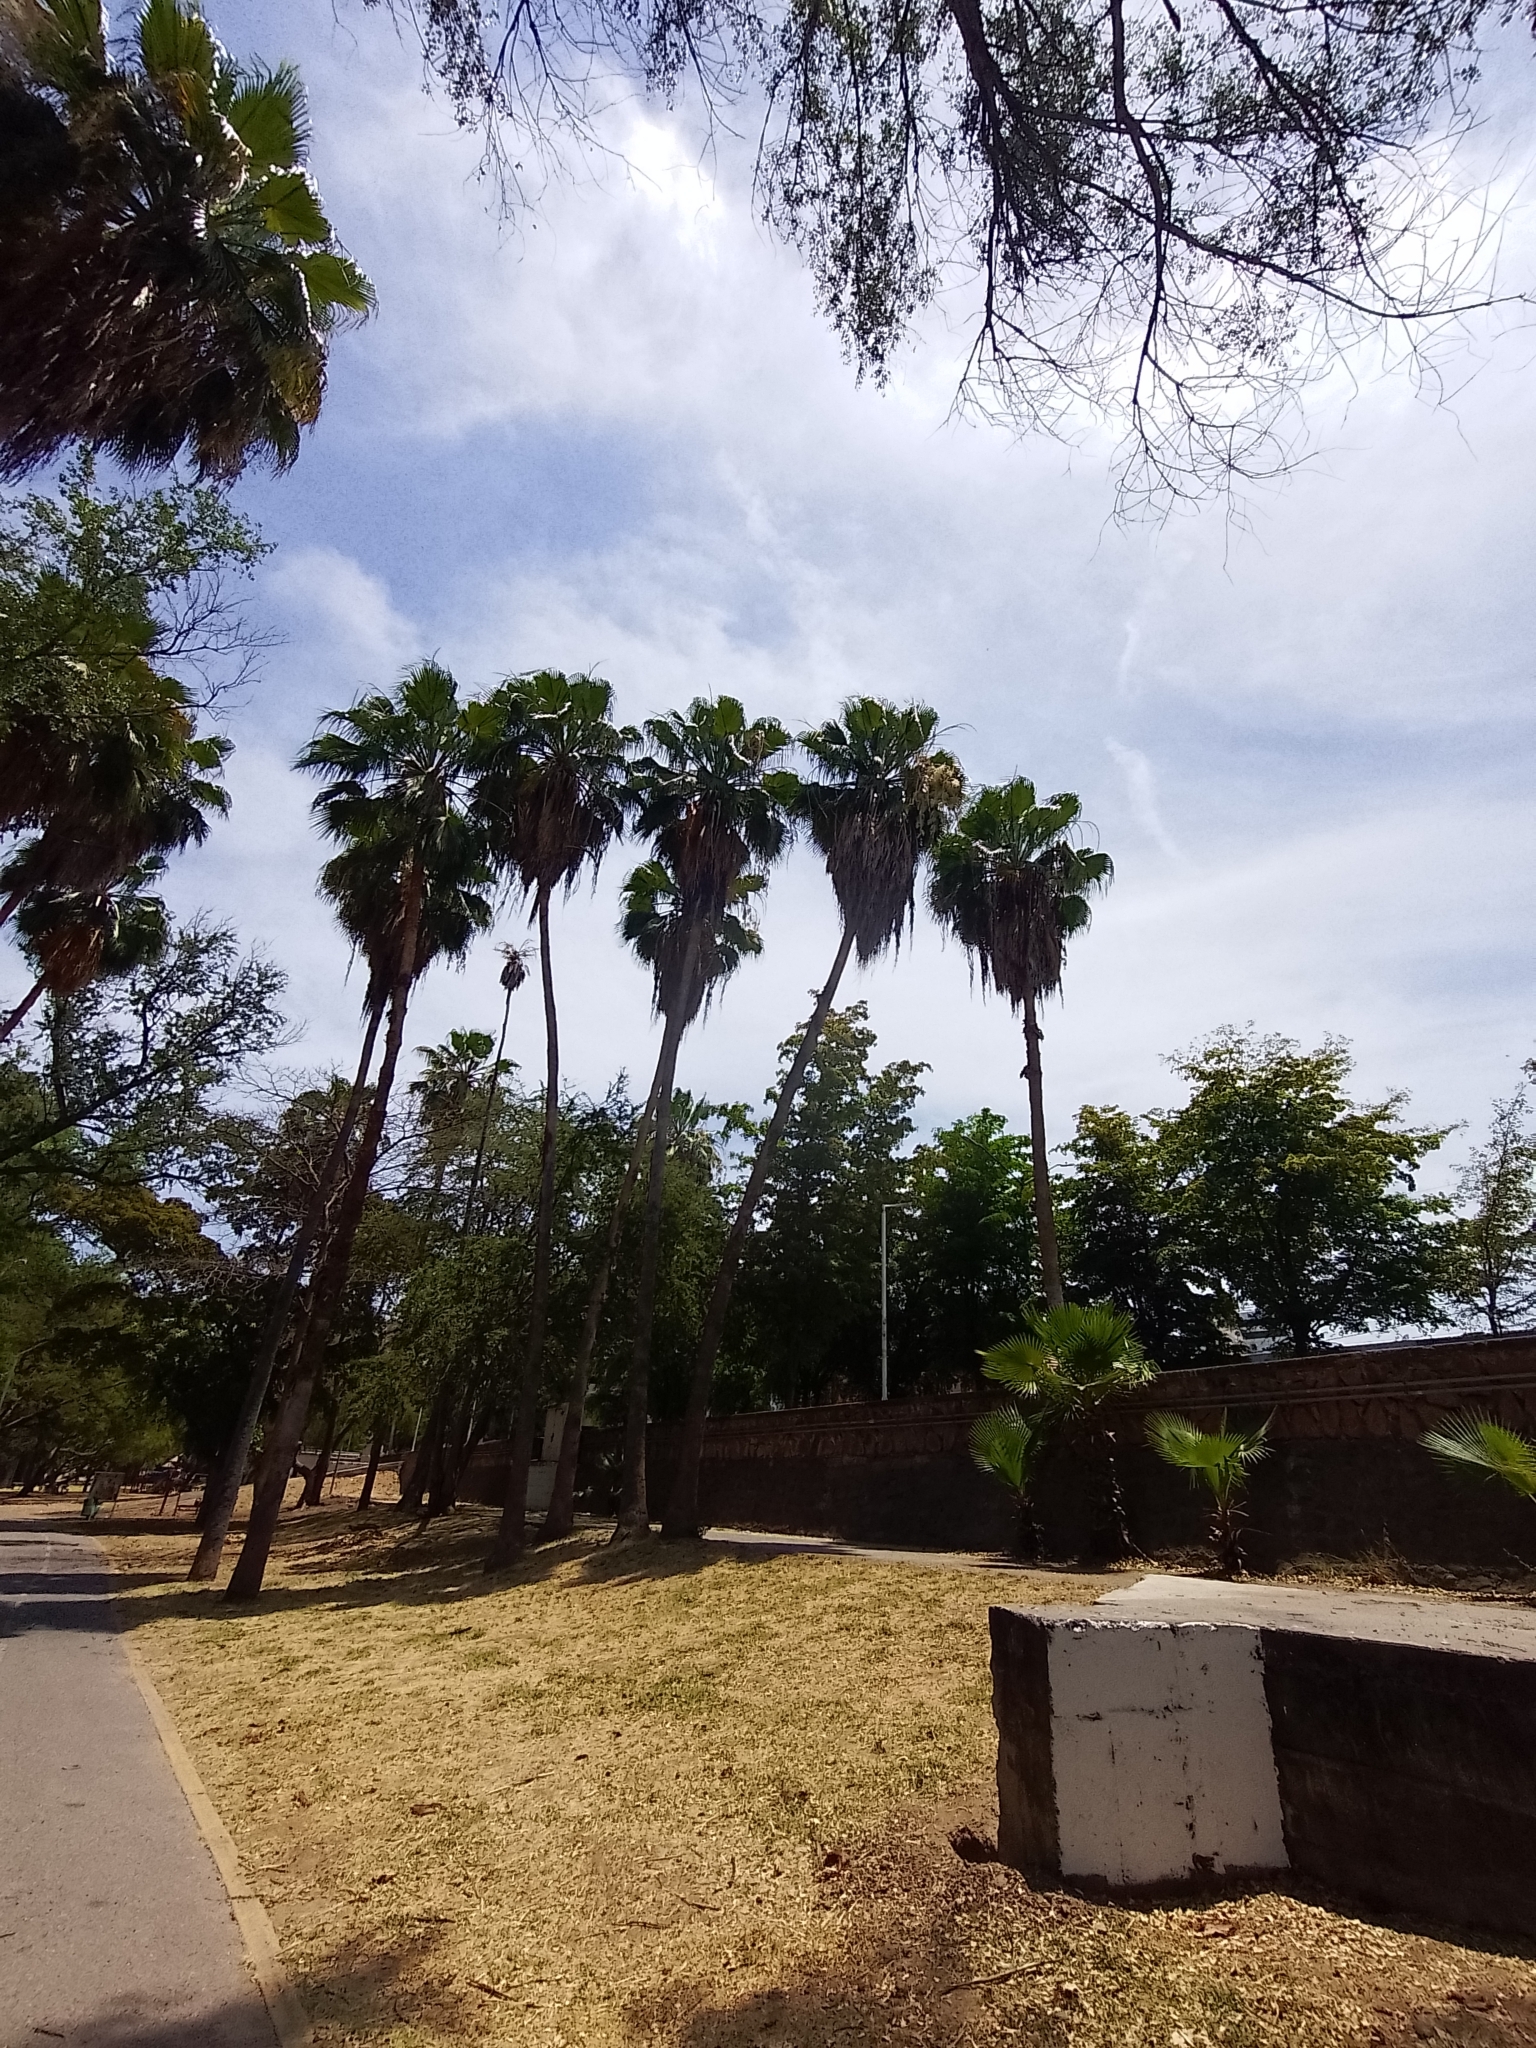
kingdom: Plantae
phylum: Tracheophyta
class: Liliopsida
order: Arecales
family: Arecaceae
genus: Washingtonia
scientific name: Washingtonia robusta
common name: Mexican fan palm
